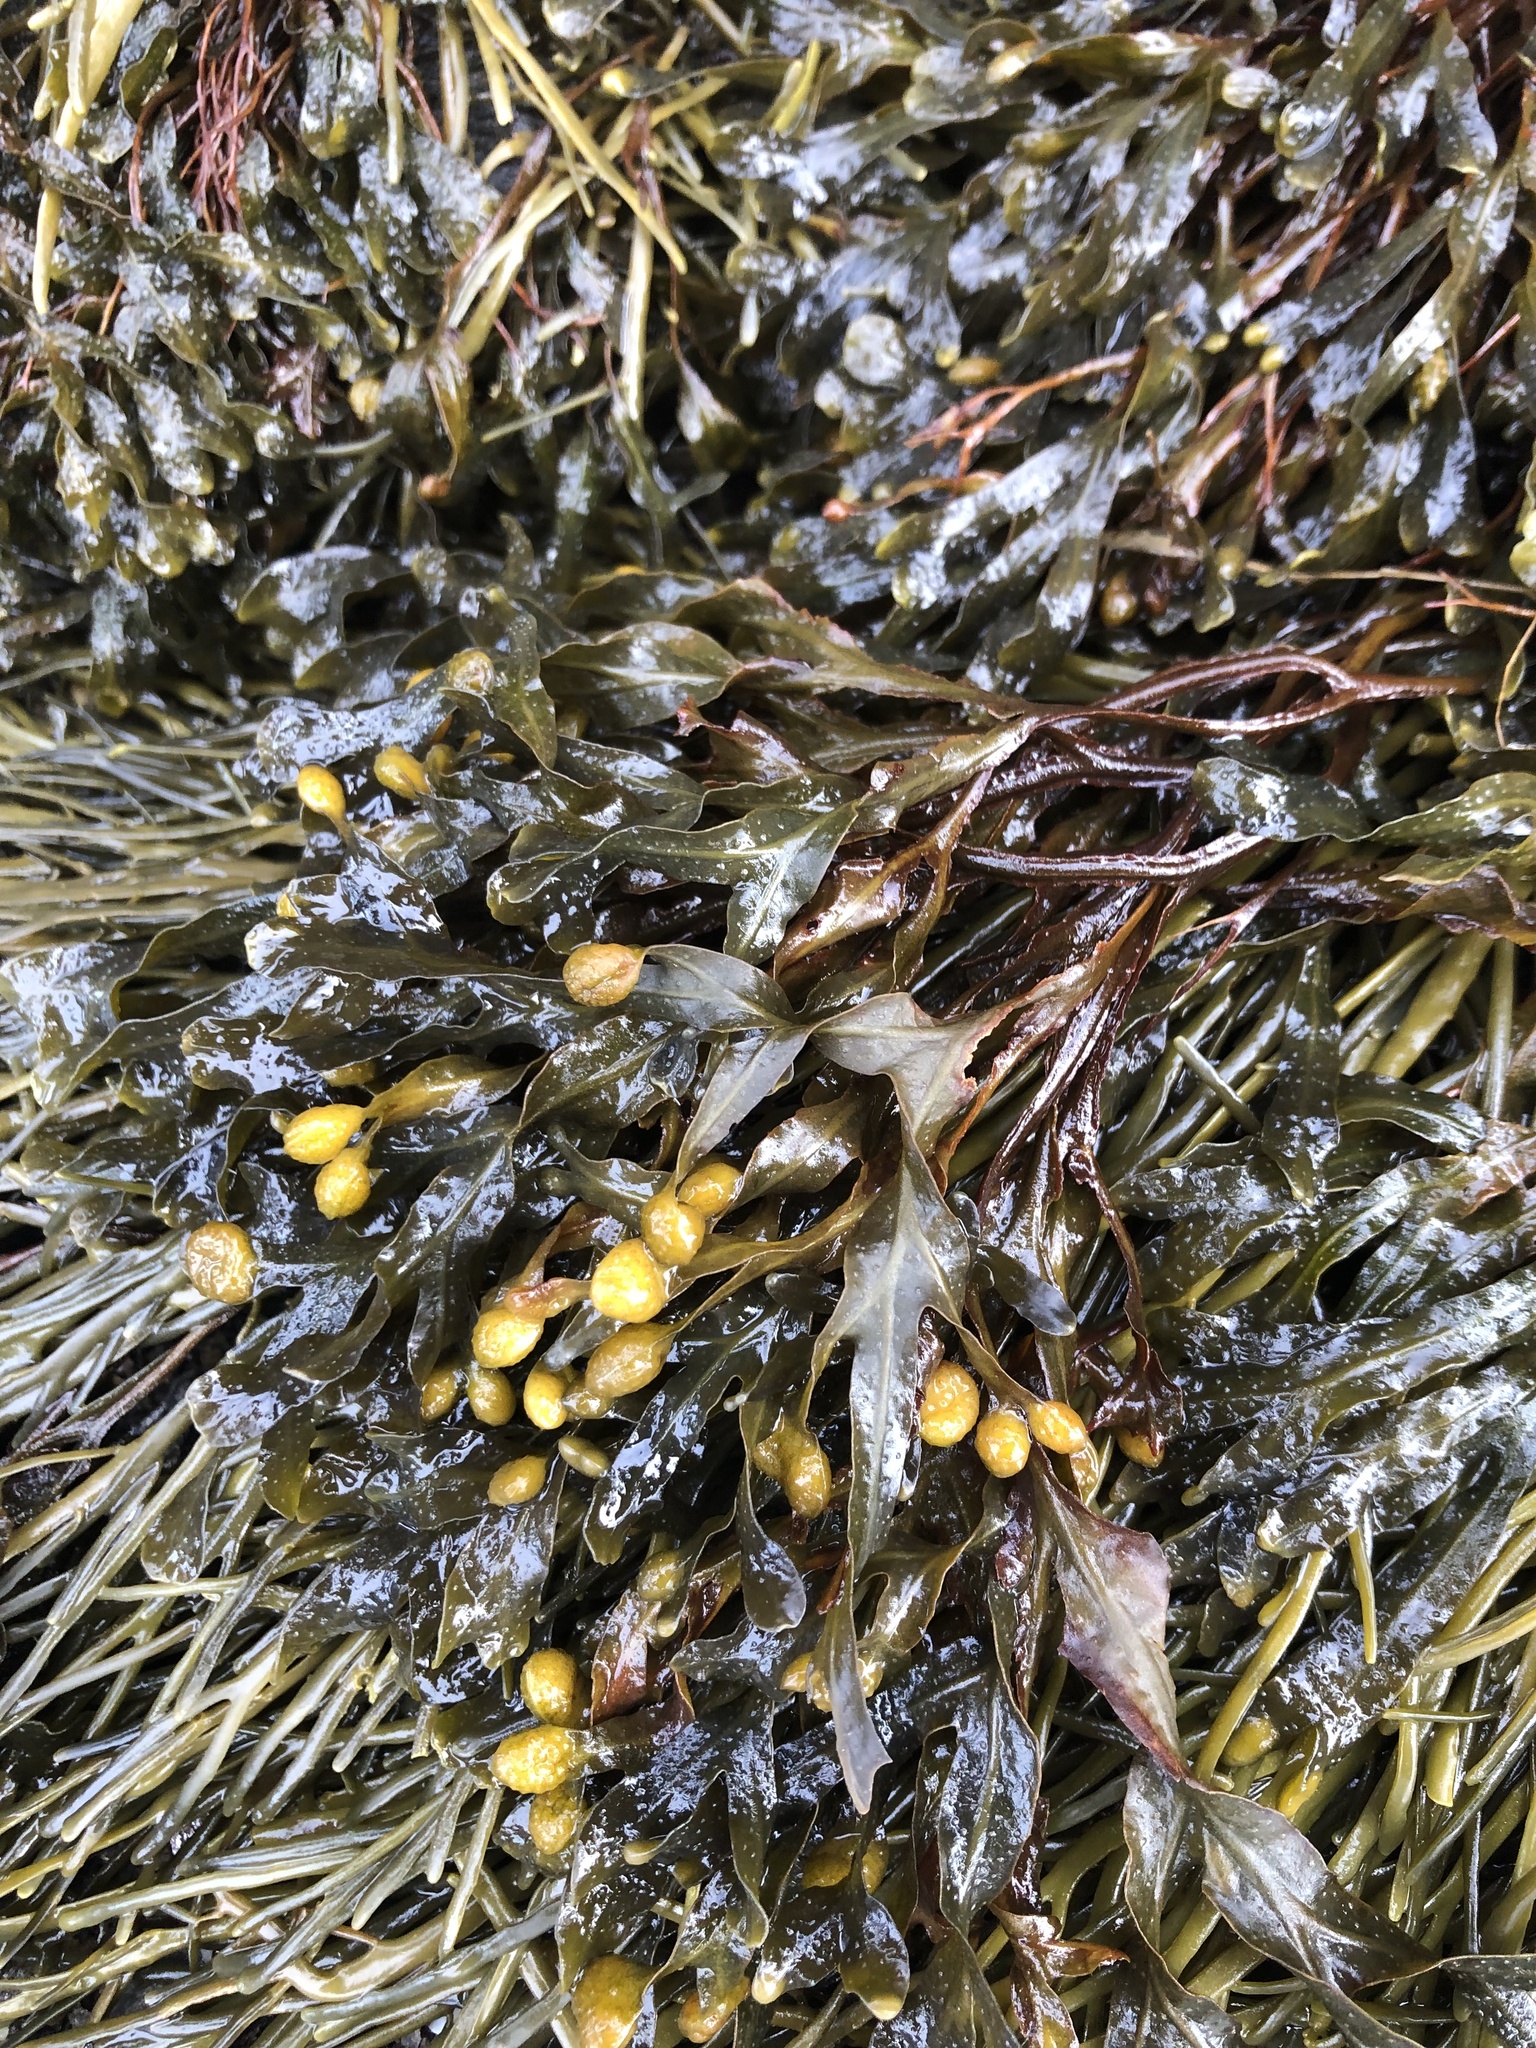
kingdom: Chromista
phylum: Ochrophyta
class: Phaeophyceae
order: Fucales
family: Fucaceae
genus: Fucus
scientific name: Fucus spiralis
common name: Spiral wrack
